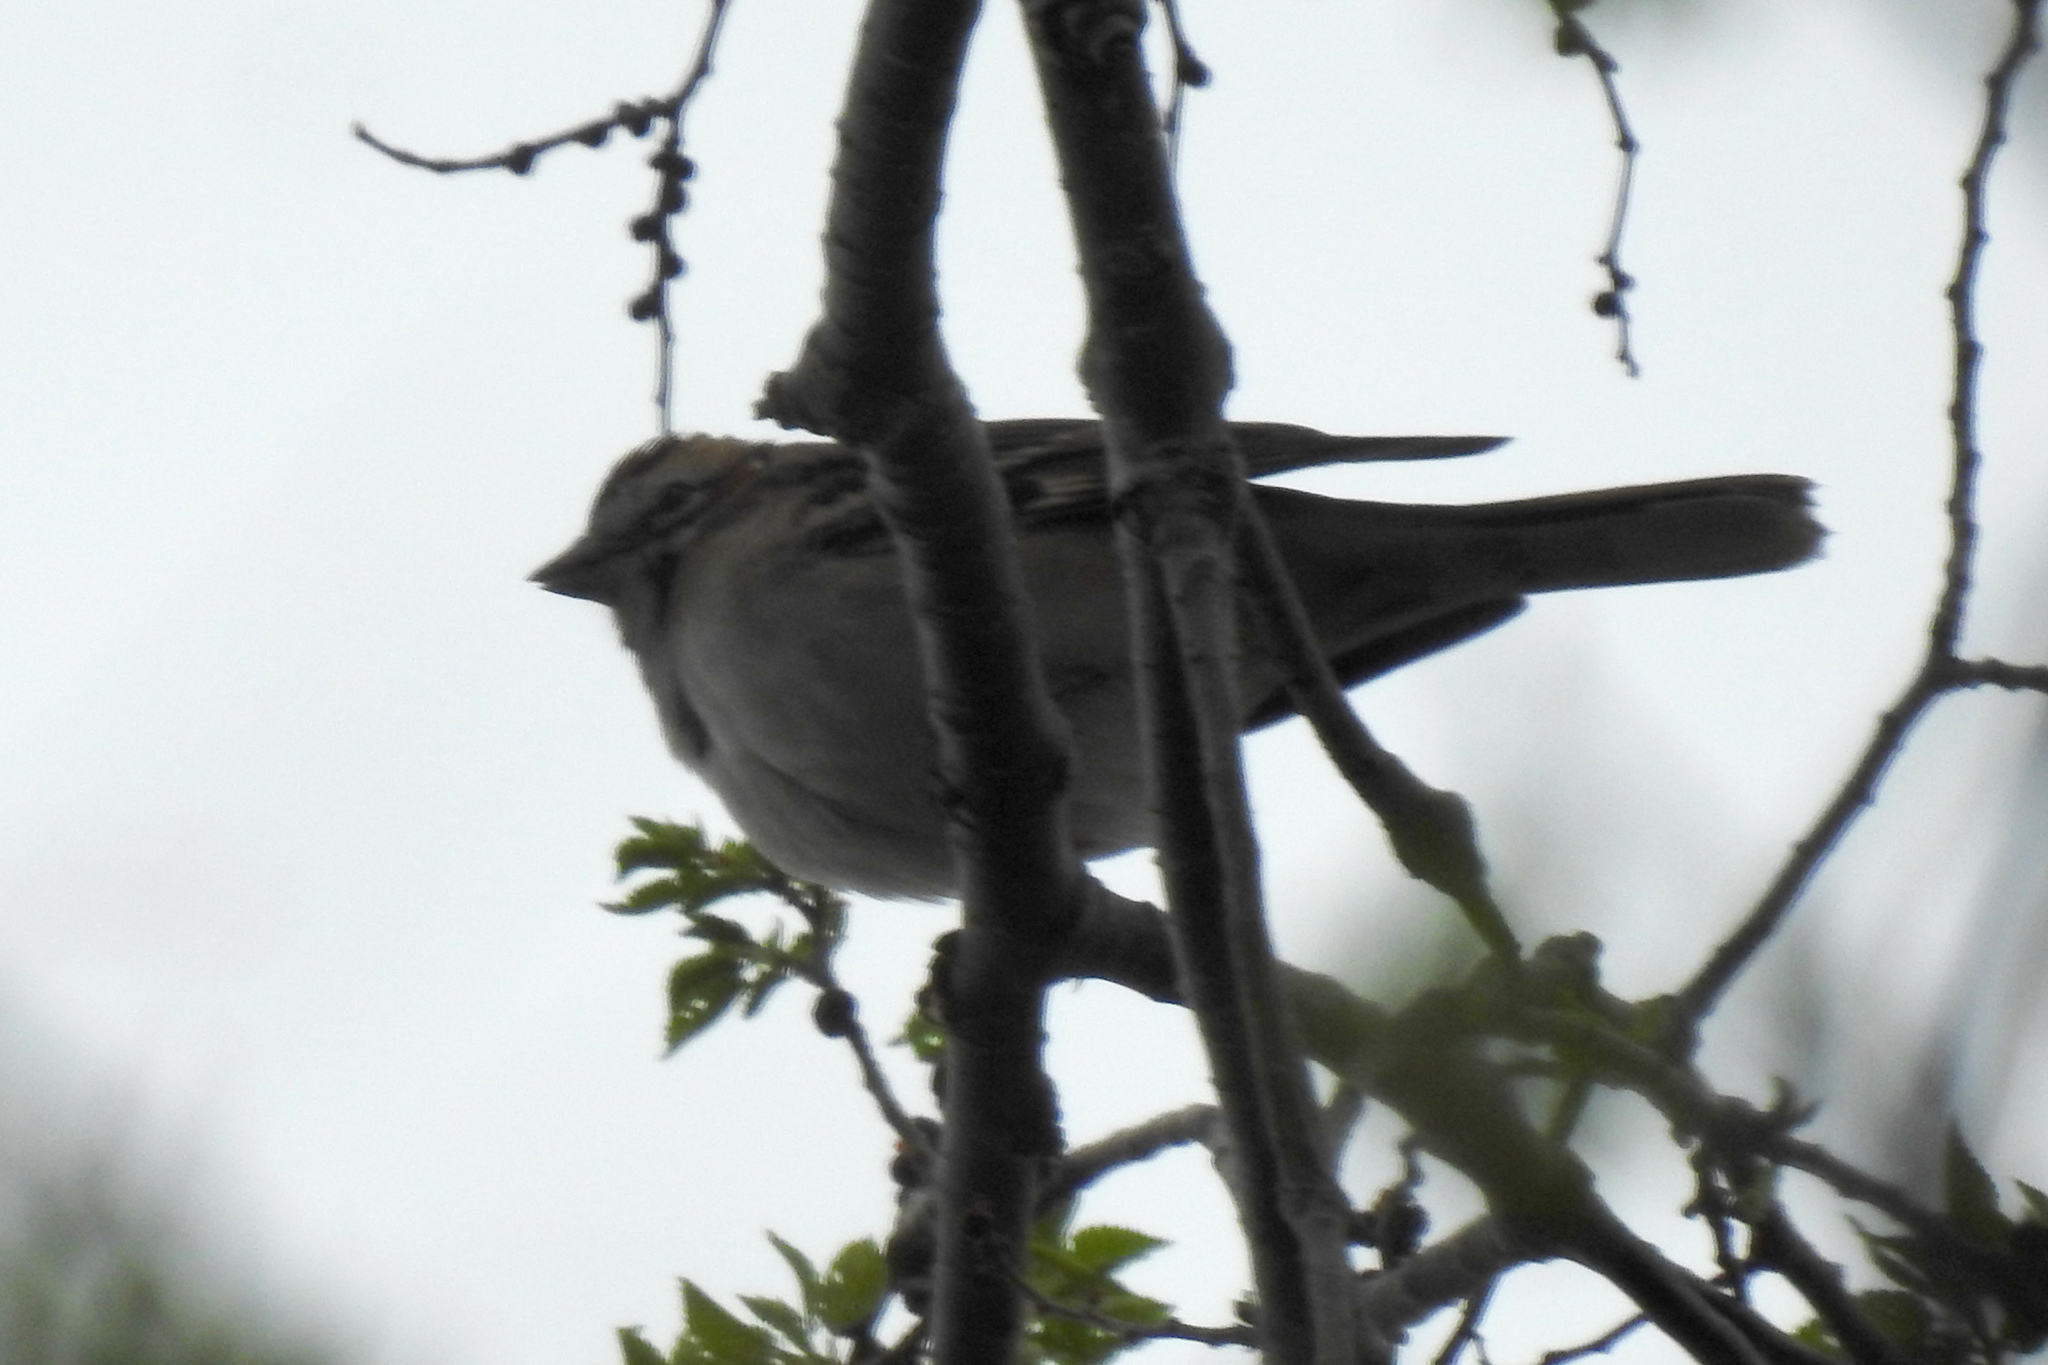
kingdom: Animalia
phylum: Chordata
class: Aves
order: Passeriformes
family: Passerellidae
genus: Chondestes
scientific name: Chondestes grammacus
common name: Lark sparrow
